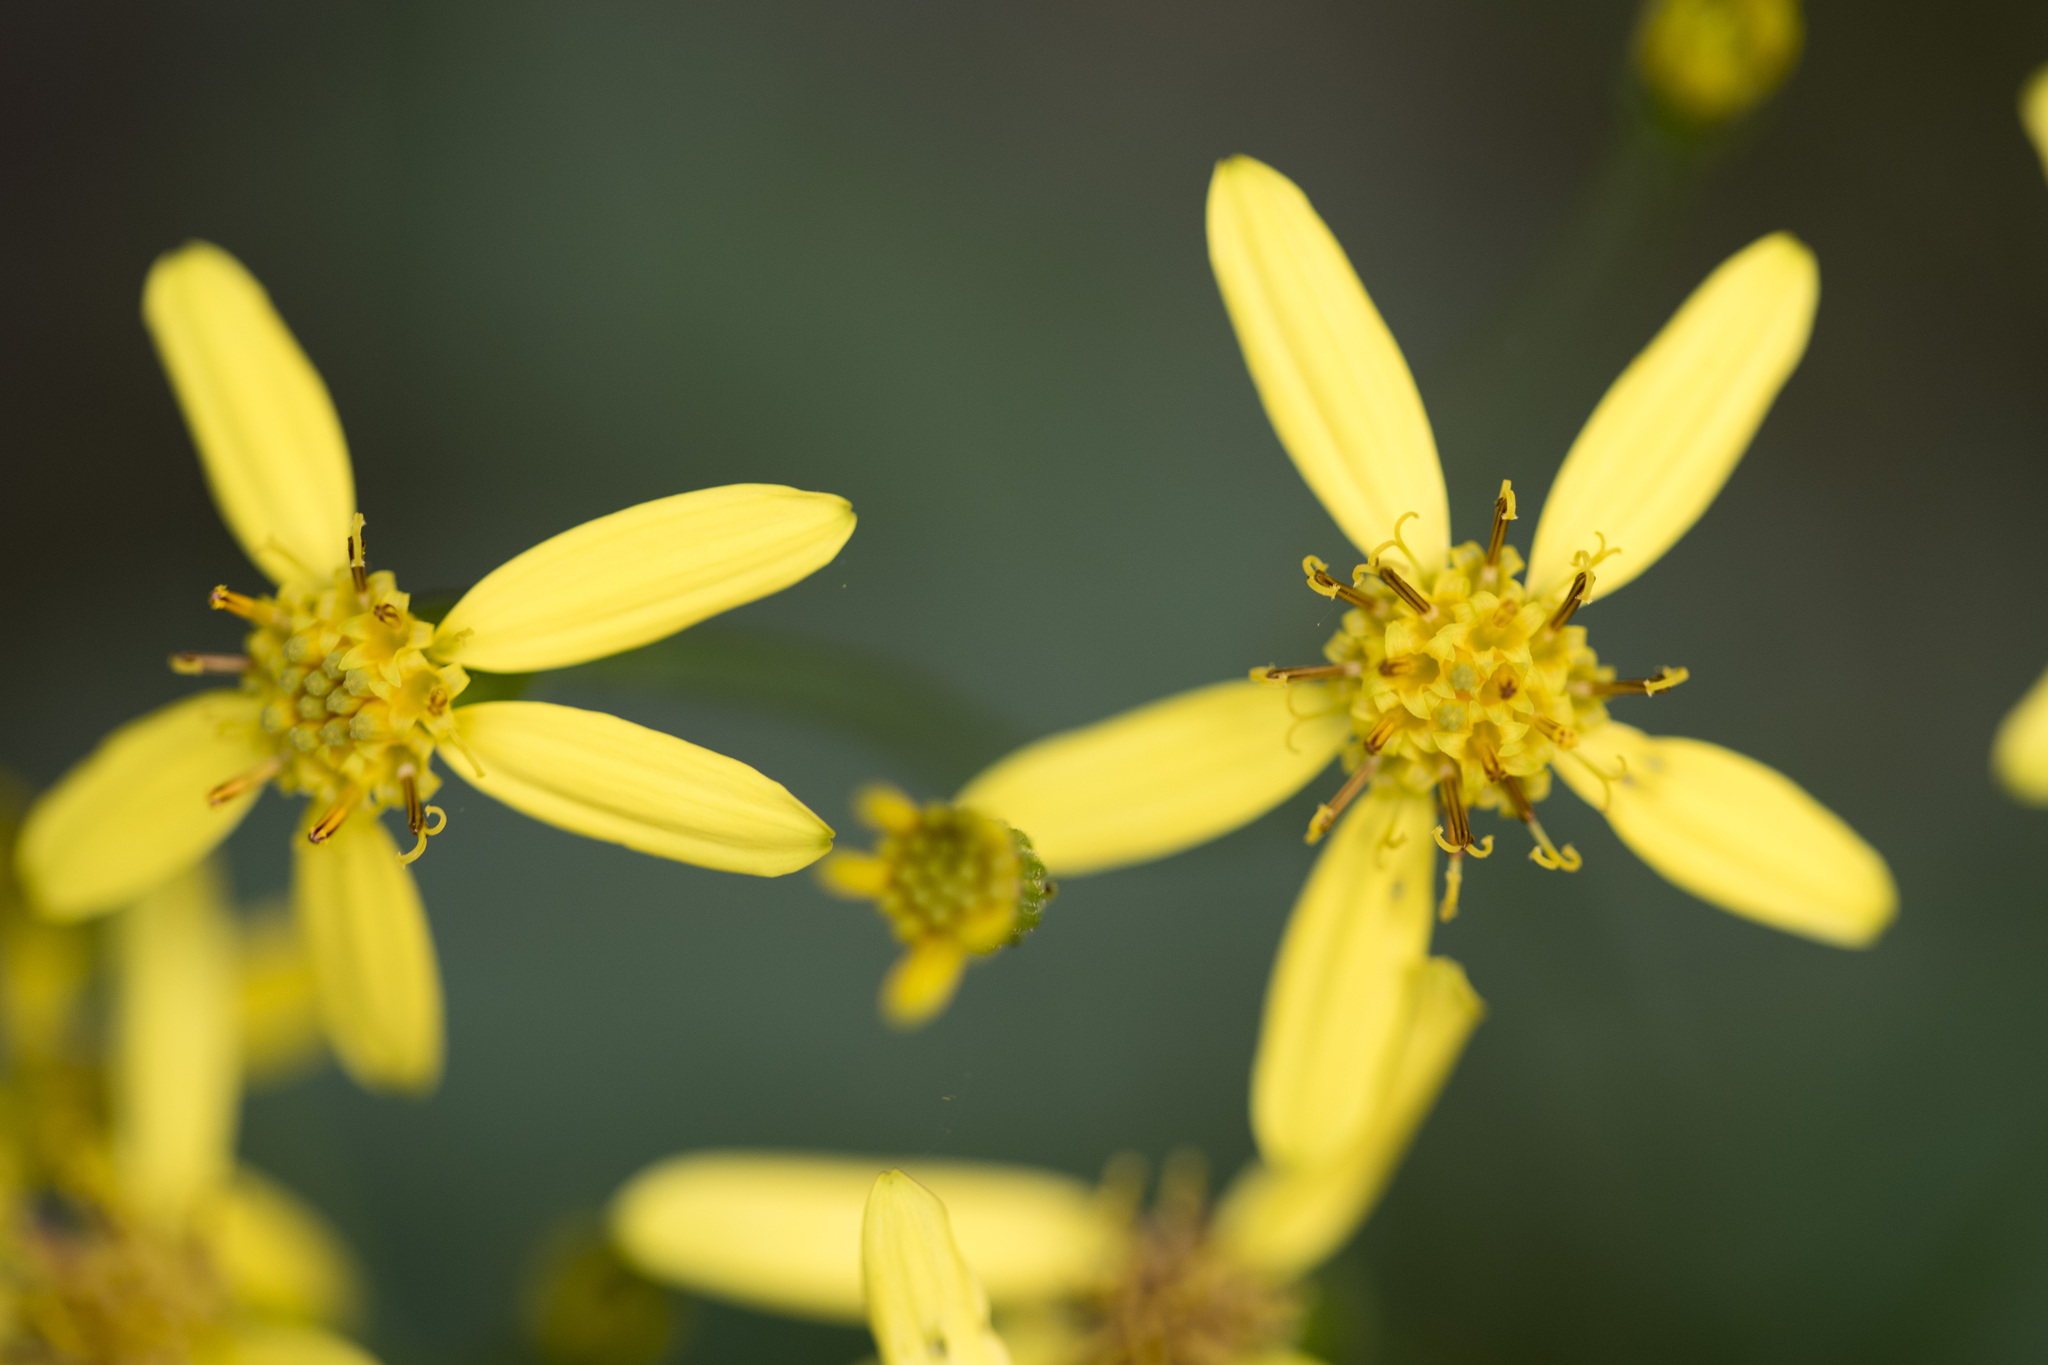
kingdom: Plantae
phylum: Tracheophyta
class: Magnoliopsida
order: Asterales
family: Asteraceae
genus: Jacobaea
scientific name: Jacobaea morrisonensis
